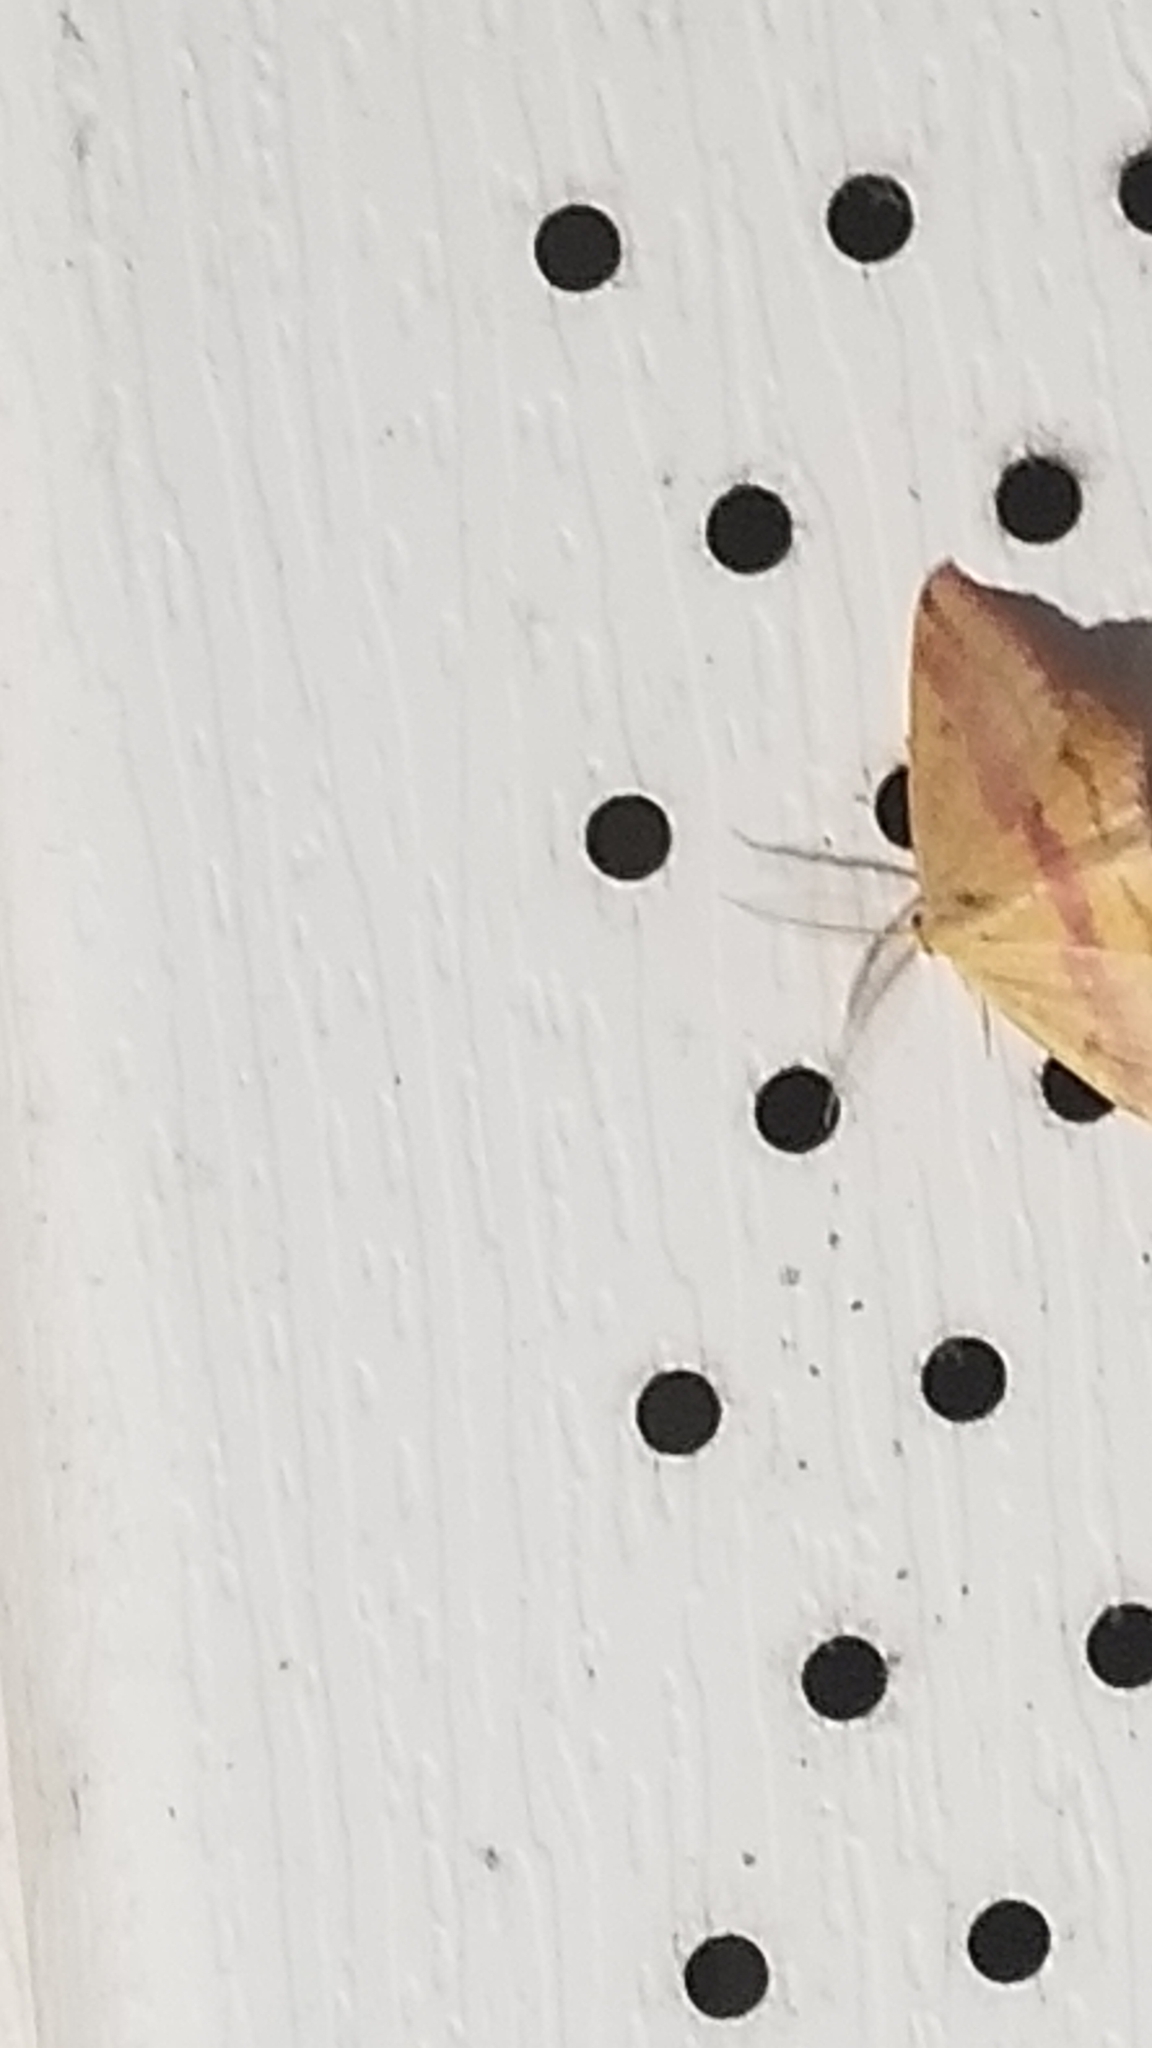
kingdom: Animalia
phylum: Arthropoda
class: Insecta
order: Lepidoptera
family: Geometridae
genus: Haematopis
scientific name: Haematopis grataria
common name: Chickweed geometer
